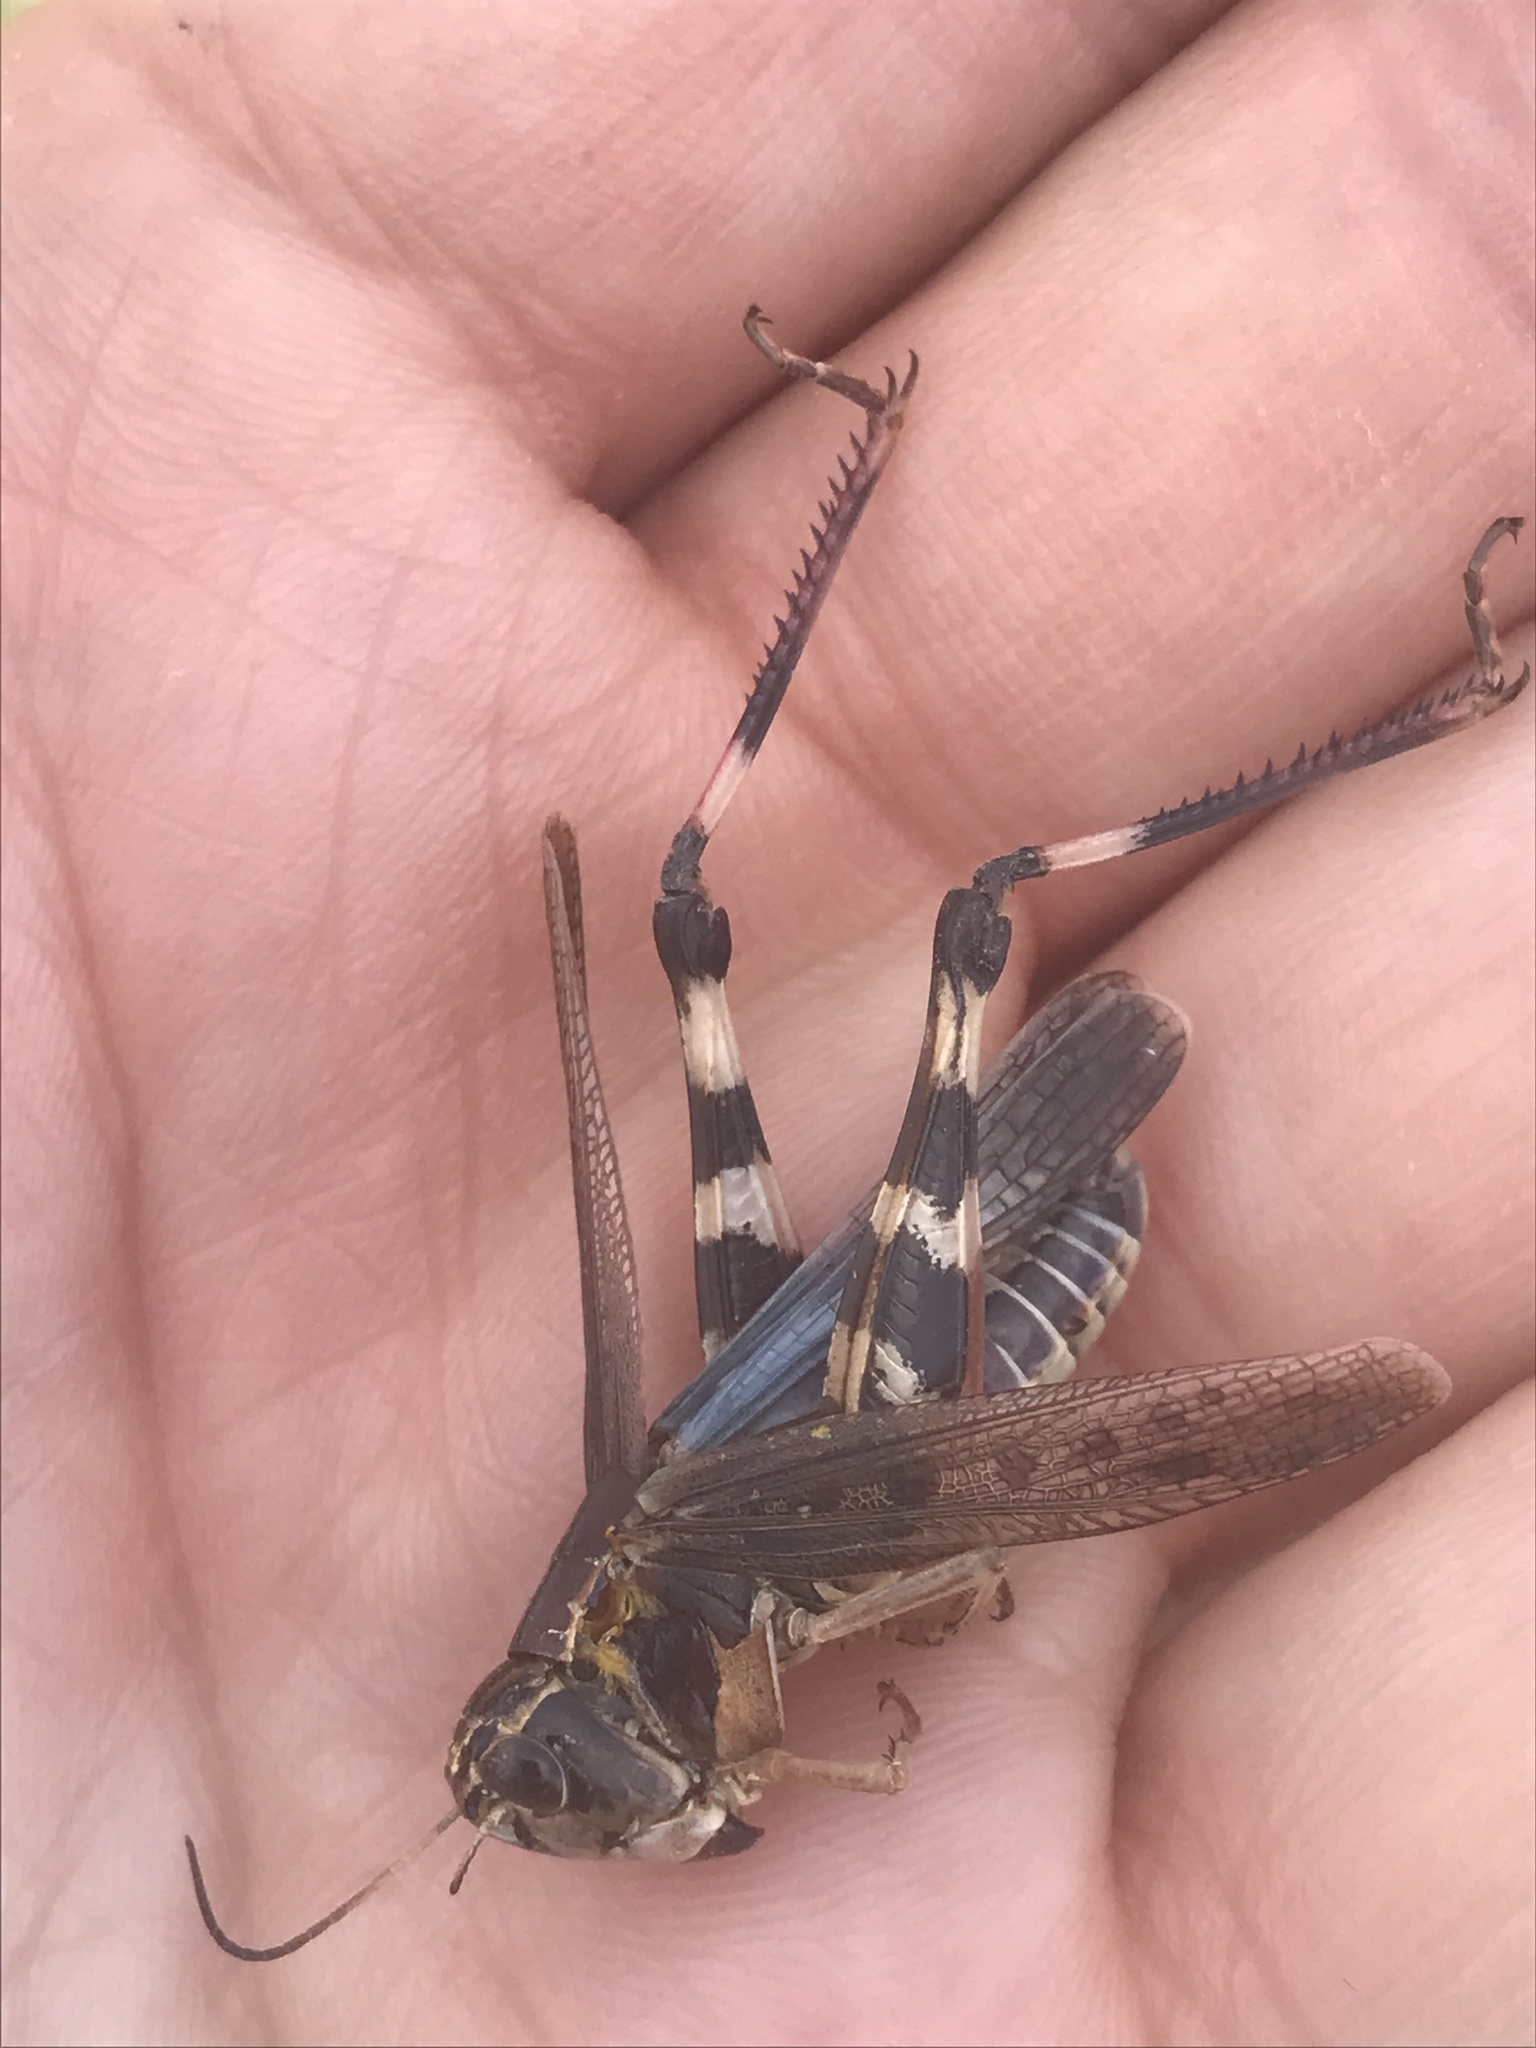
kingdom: Animalia
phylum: Arthropoda
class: Insecta
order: Orthoptera
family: Acrididae
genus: Boopedon
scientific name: Boopedon gracile
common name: Graceful range grasshopper
